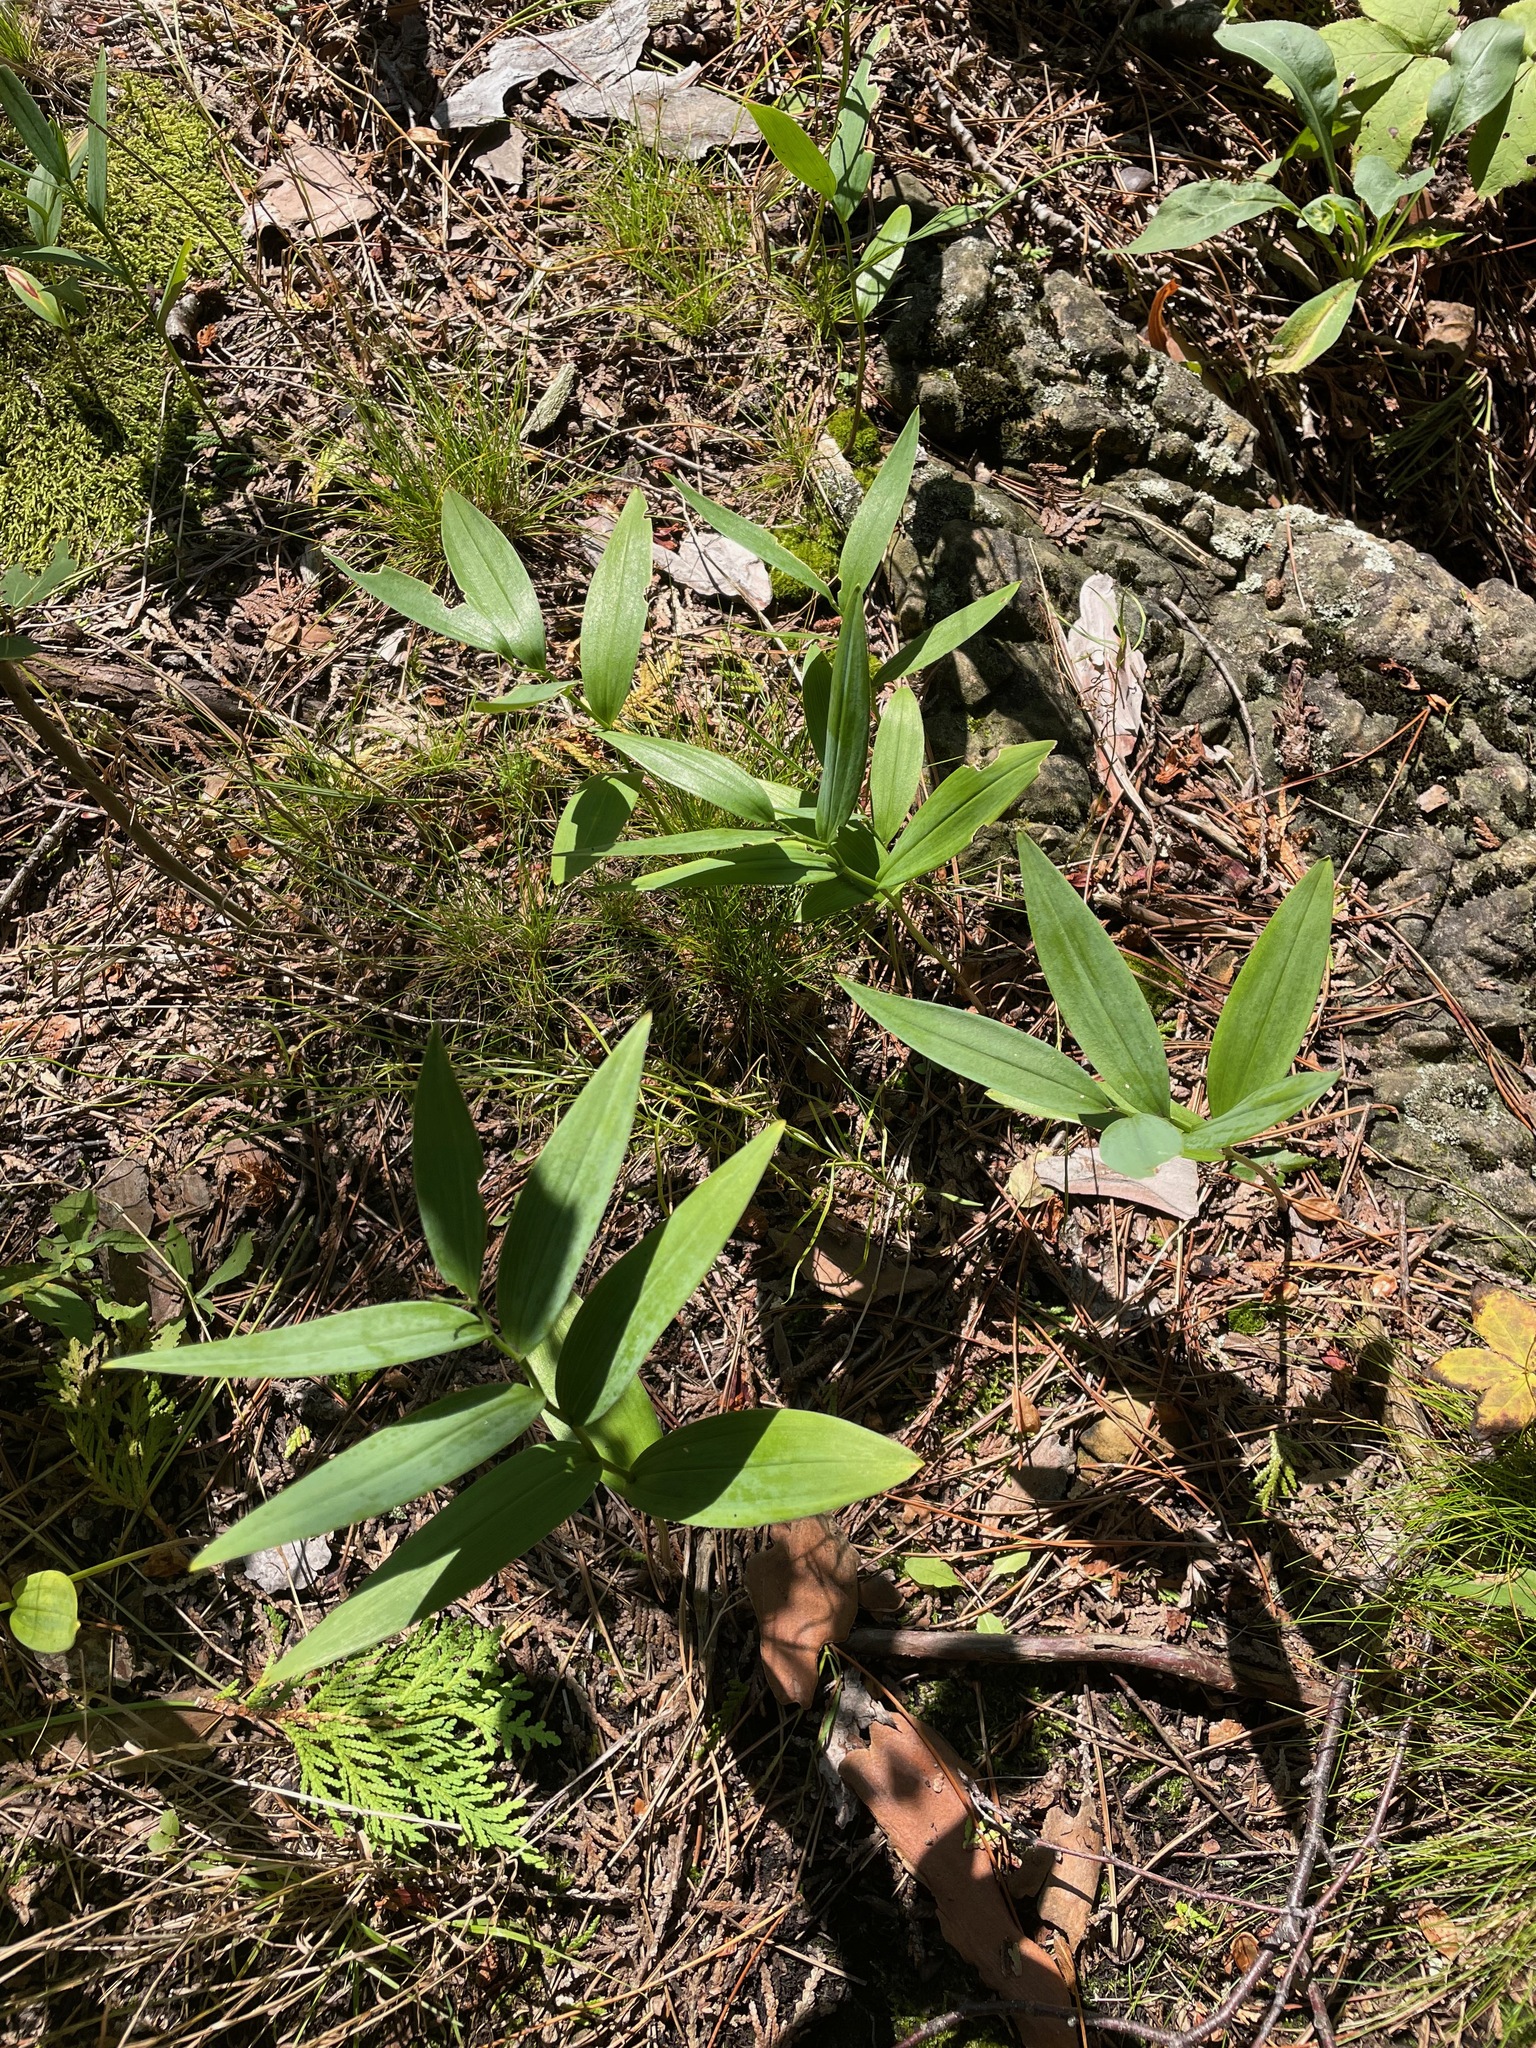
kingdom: Plantae
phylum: Tracheophyta
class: Liliopsida
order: Asparagales
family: Asparagaceae
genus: Maianthemum
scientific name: Maianthemum stellatum
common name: Little false solomon's seal
